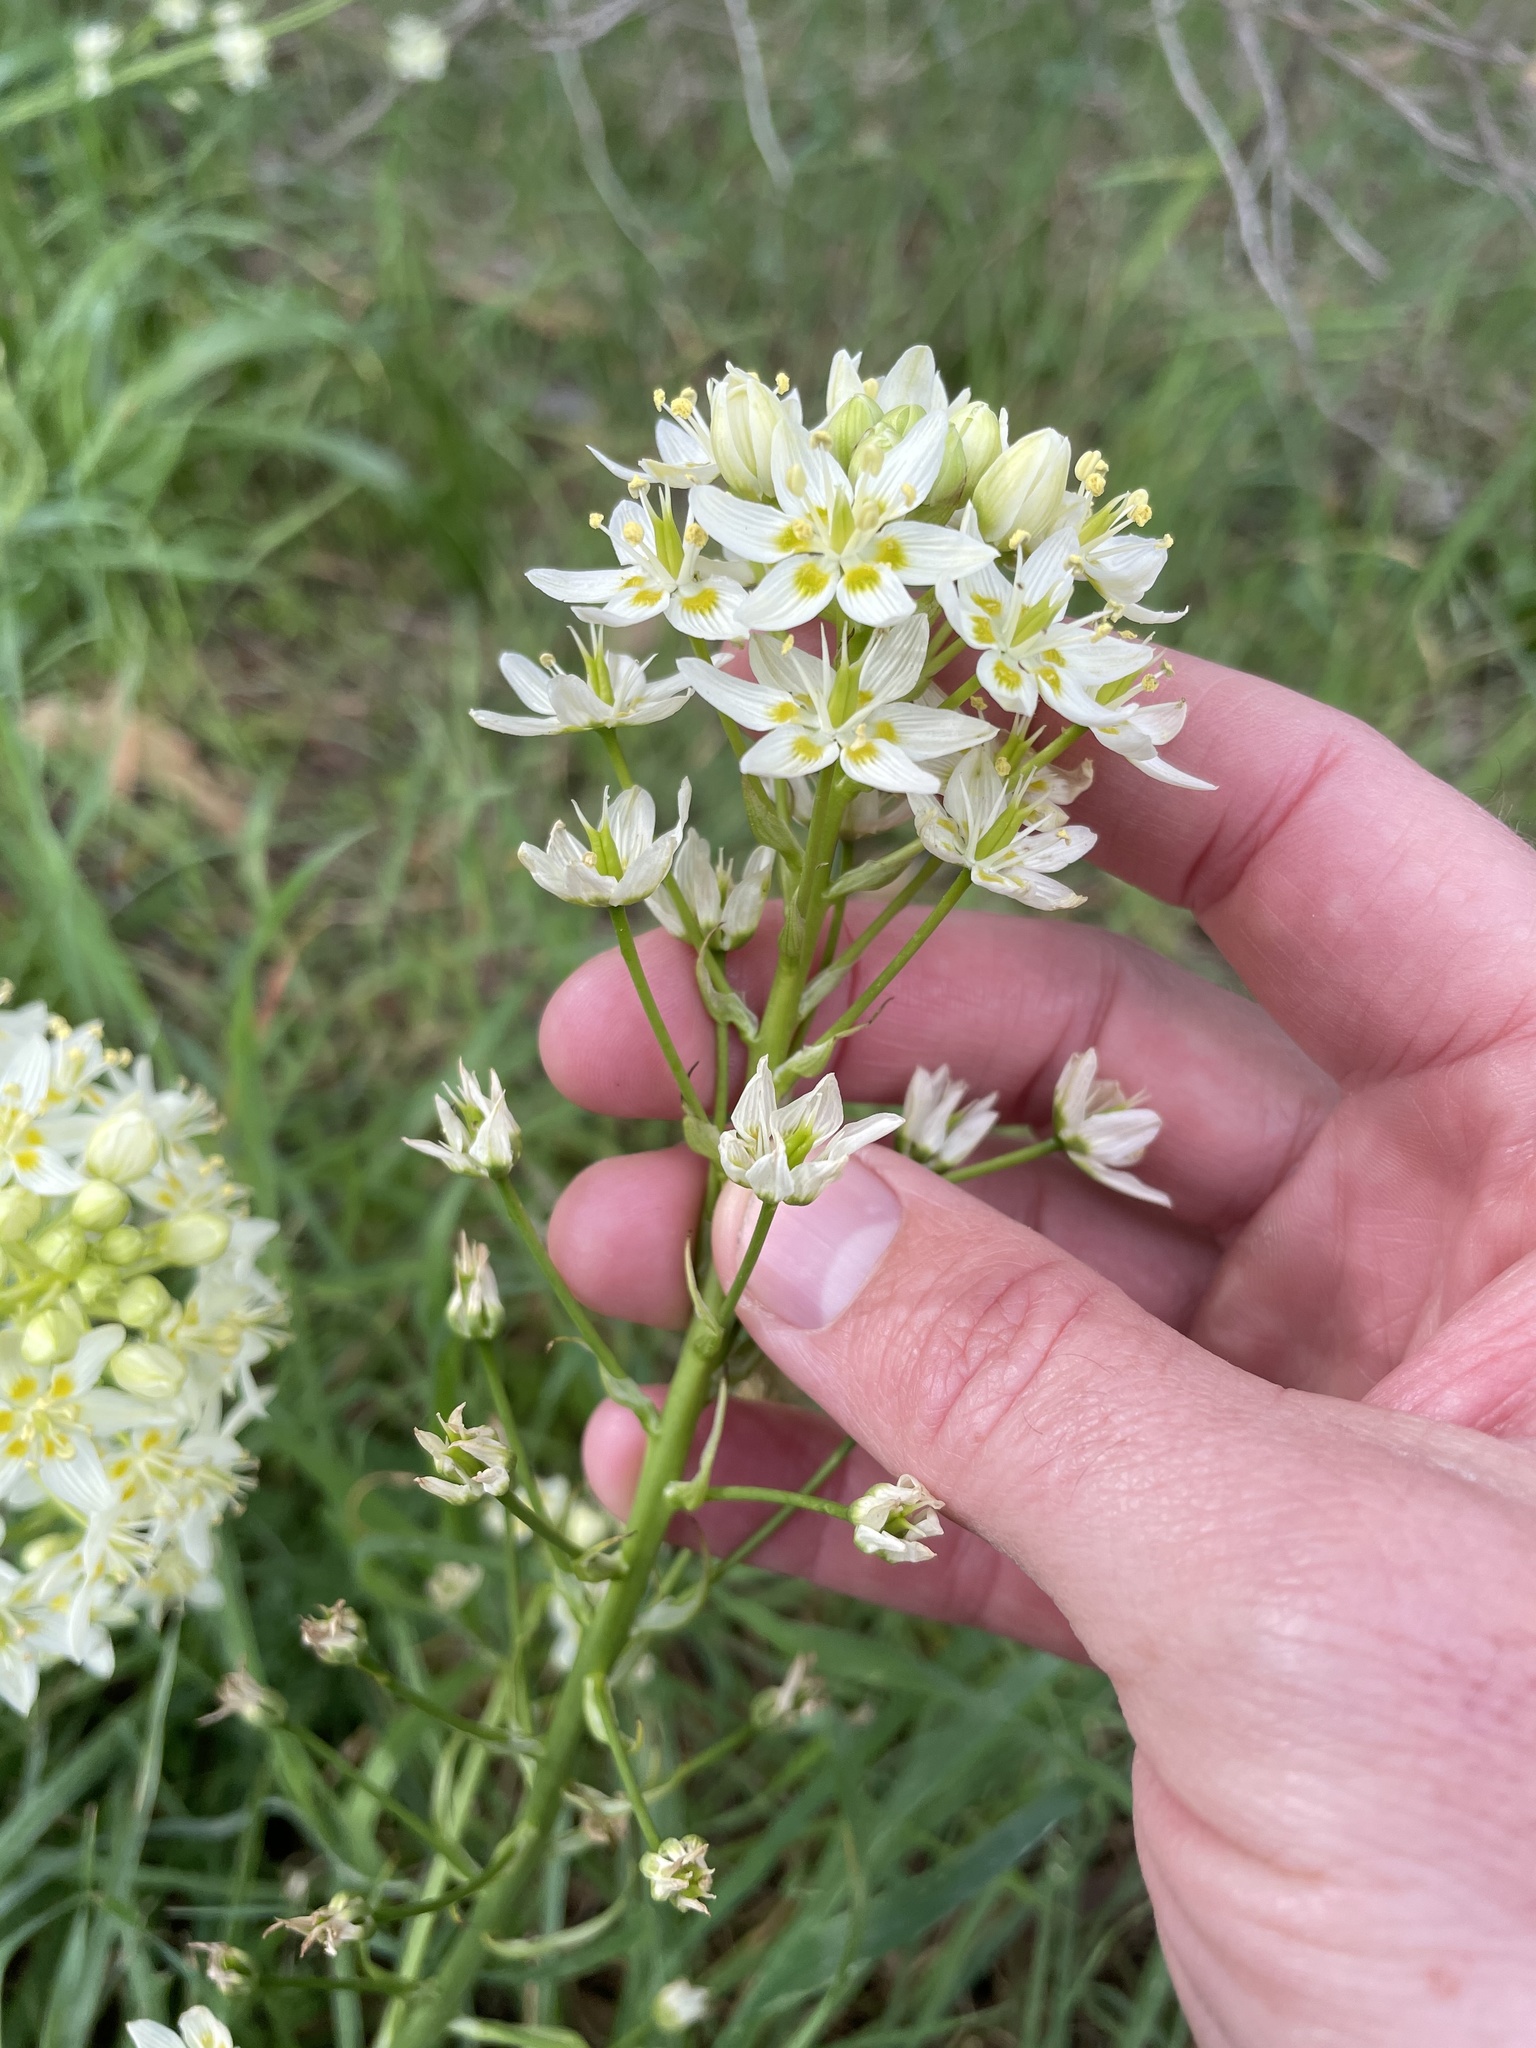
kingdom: Plantae
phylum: Tracheophyta
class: Liliopsida
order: Liliales
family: Melanthiaceae
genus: Toxicoscordion
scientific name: Toxicoscordion fremontii
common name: Fremont's death camas
